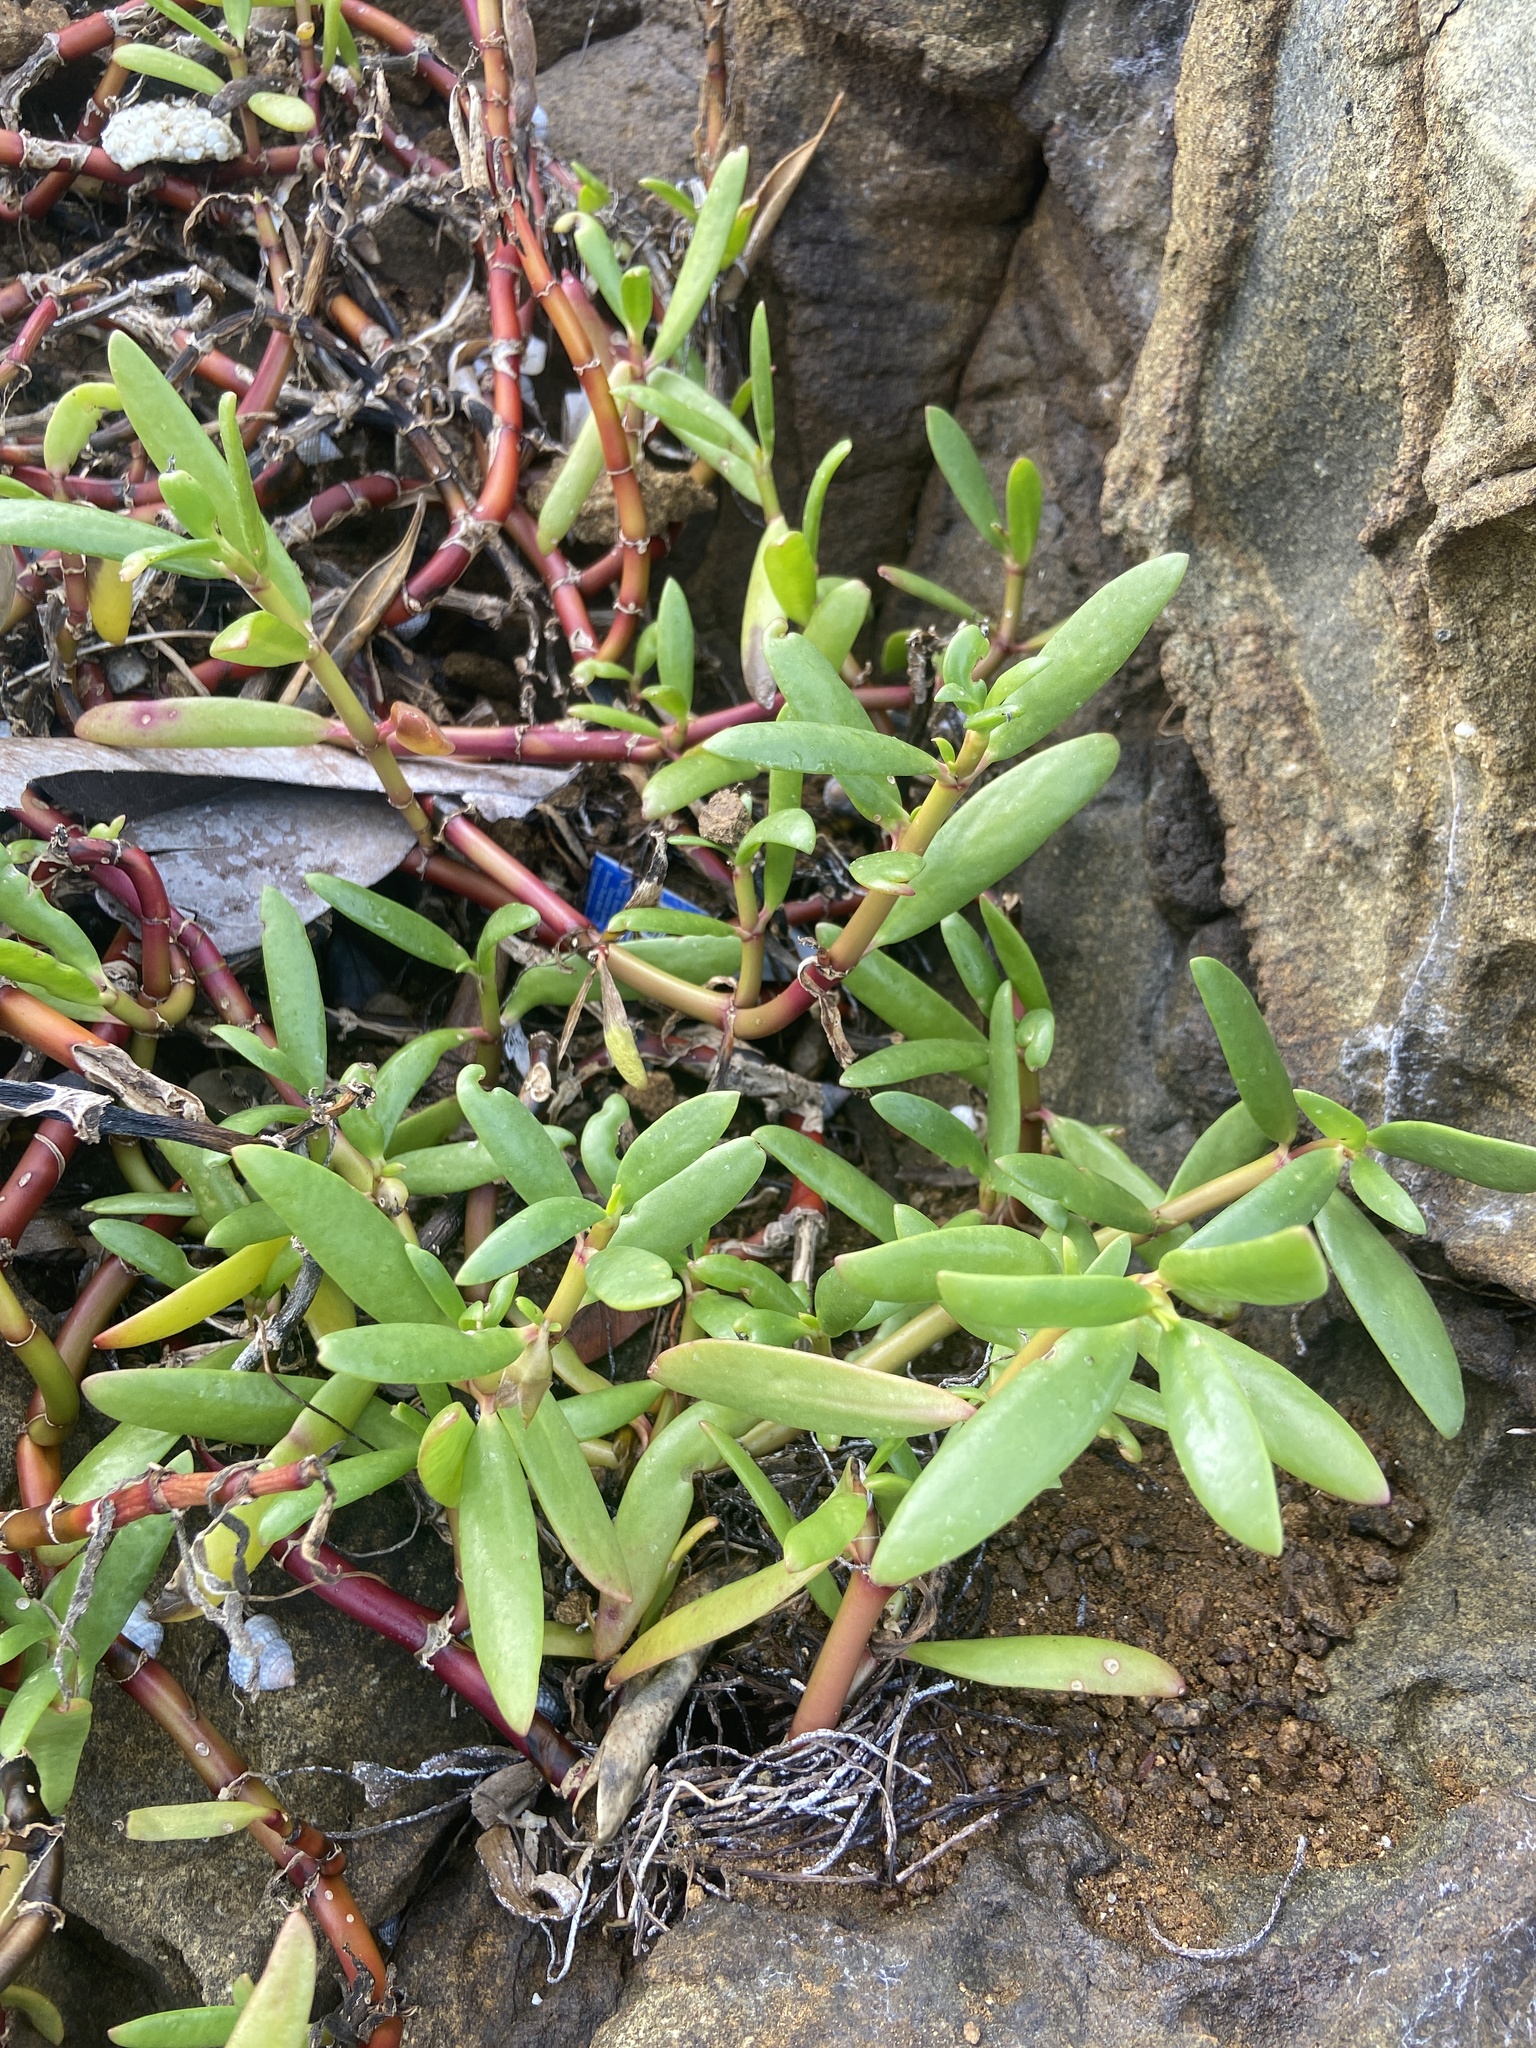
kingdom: Plantae
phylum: Tracheophyta
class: Magnoliopsida
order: Caryophyllales
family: Aizoaceae
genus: Sesuvium
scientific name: Sesuvium portulacastrum
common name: Sea-purslane
